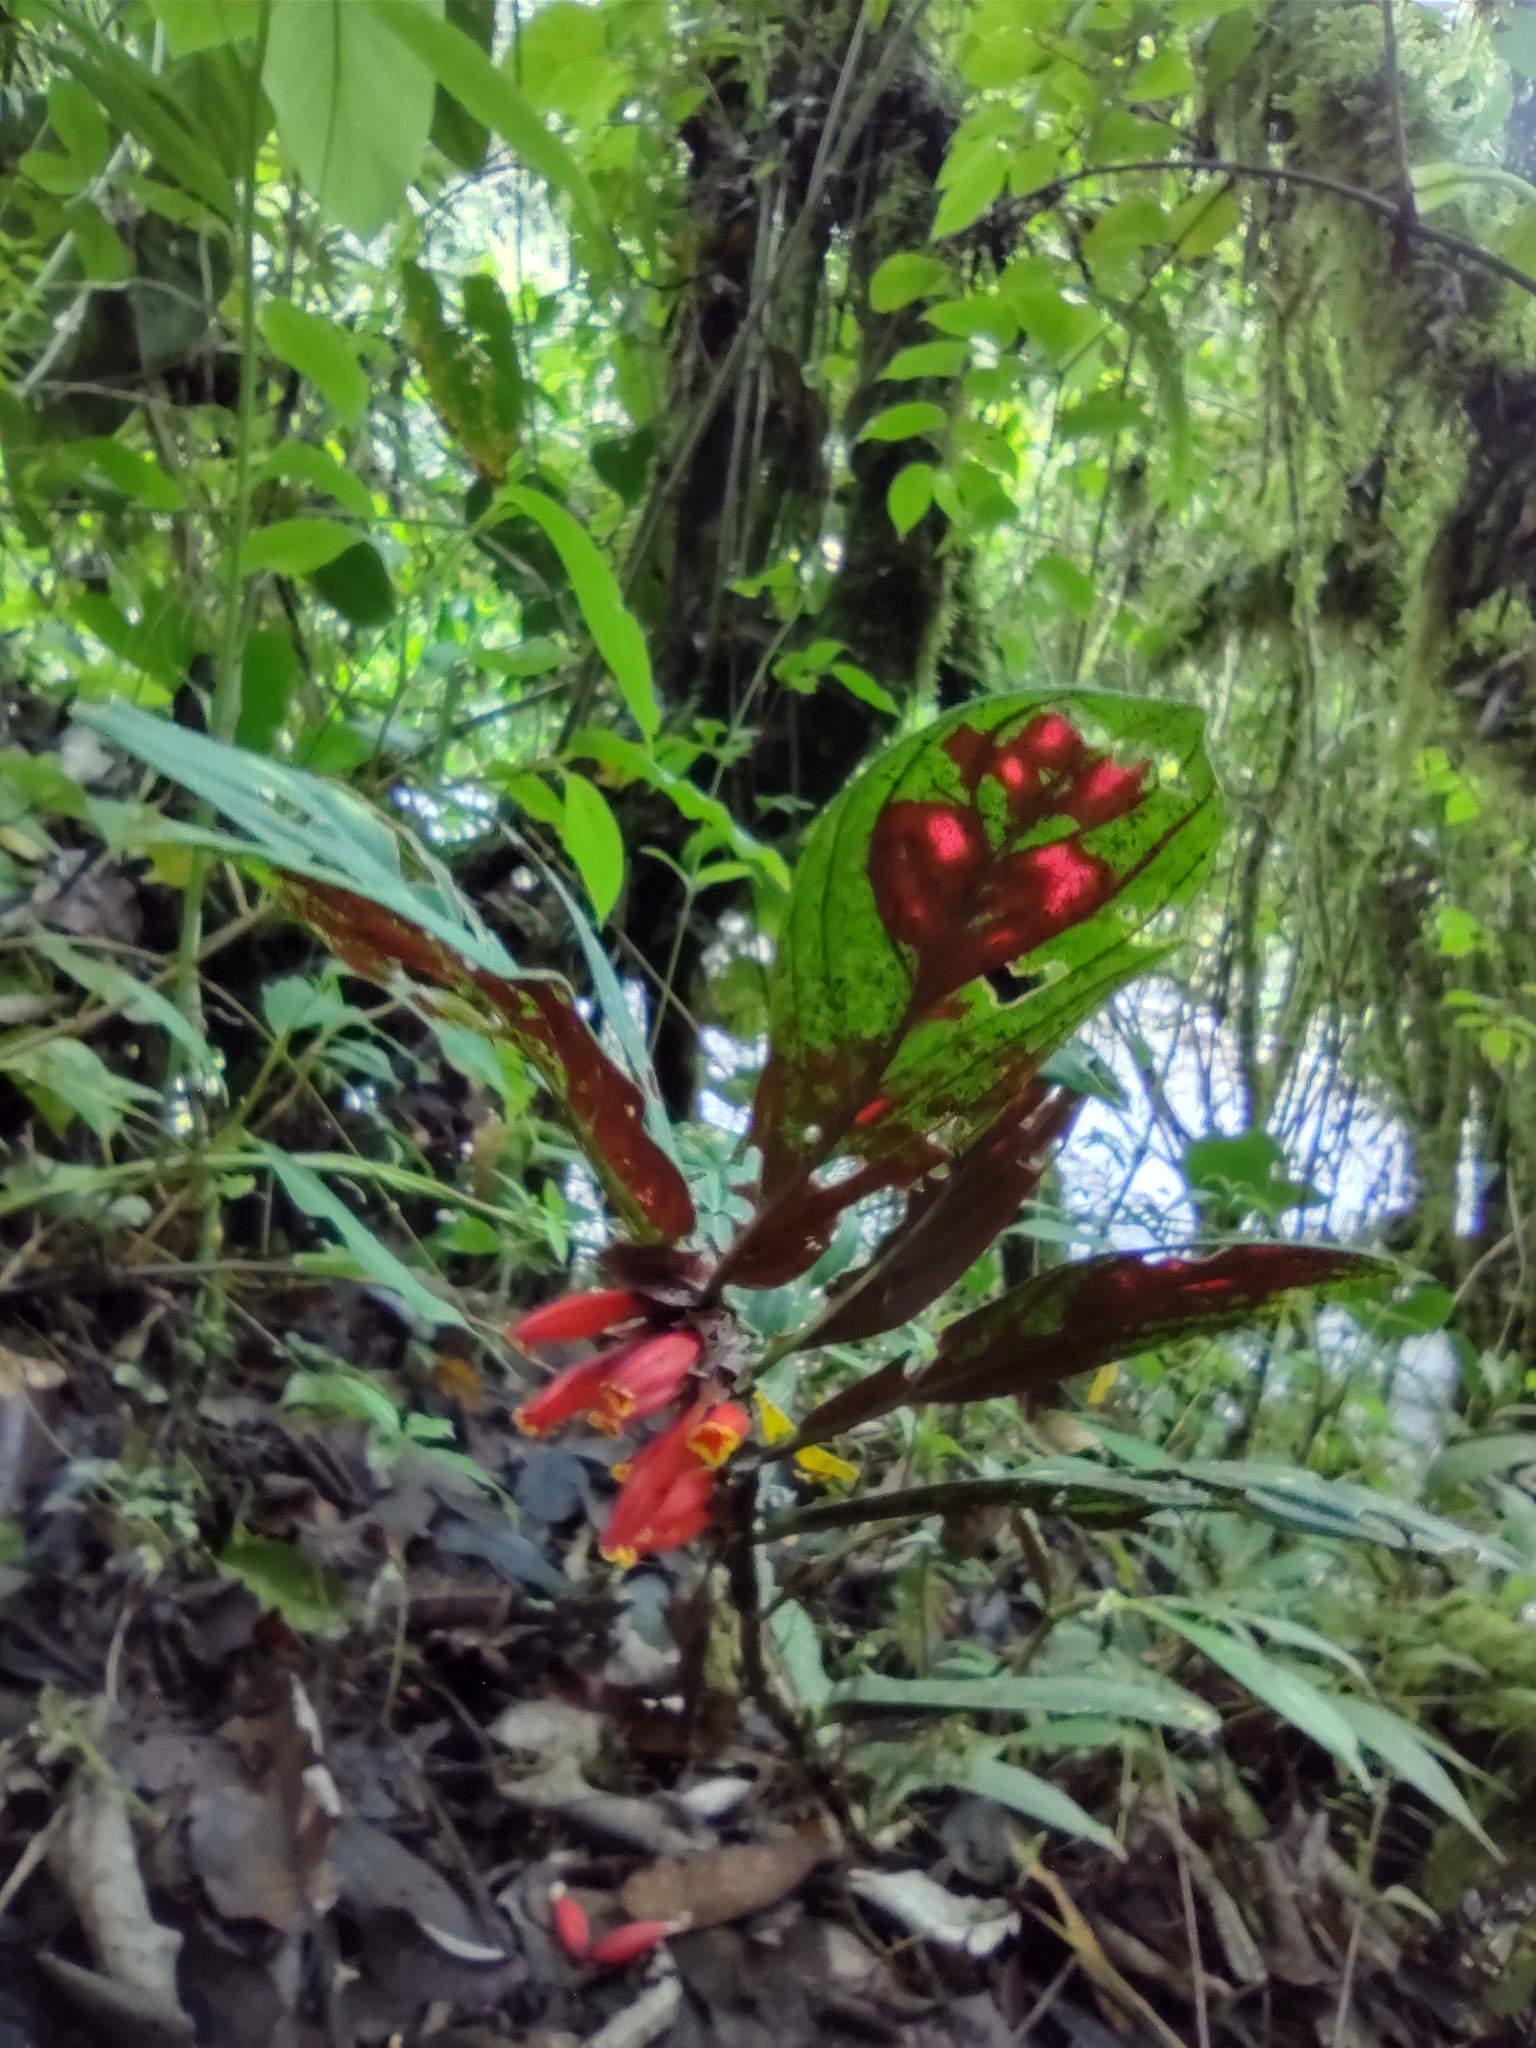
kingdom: Plantae
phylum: Tracheophyta
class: Magnoliopsida
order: Lamiales
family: Gesneriaceae
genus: Columnea
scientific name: Columnea dimidiata
